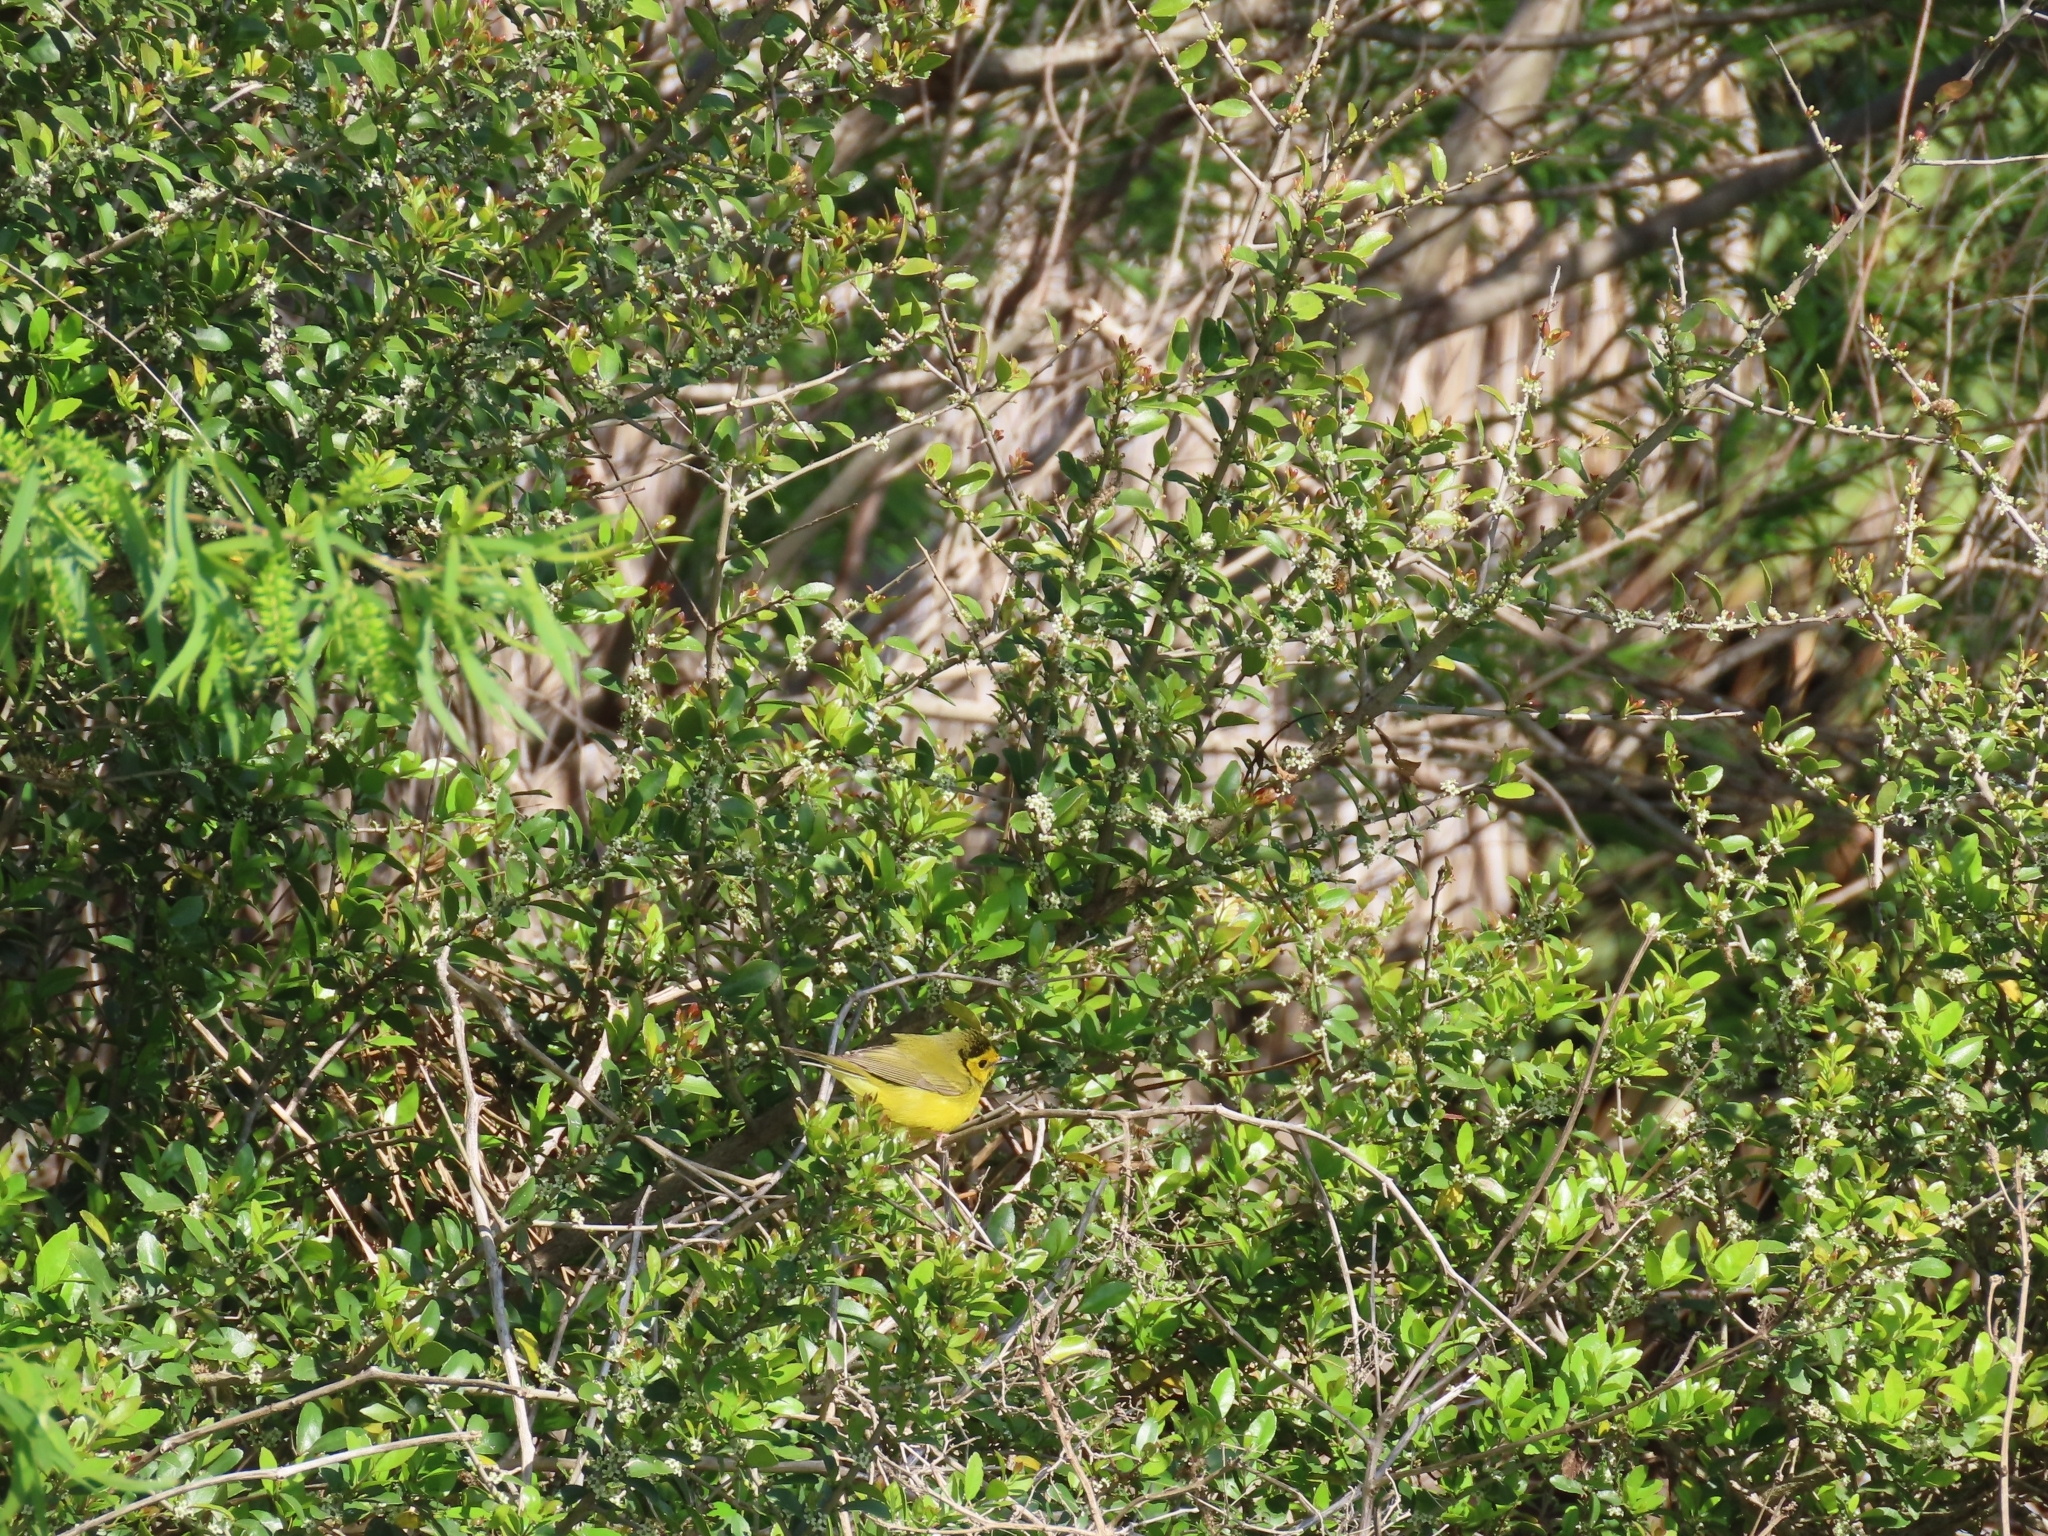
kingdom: Animalia
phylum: Chordata
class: Aves
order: Passeriformes
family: Parulidae
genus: Setophaga
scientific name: Setophaga citrina
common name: Hooded warbler
